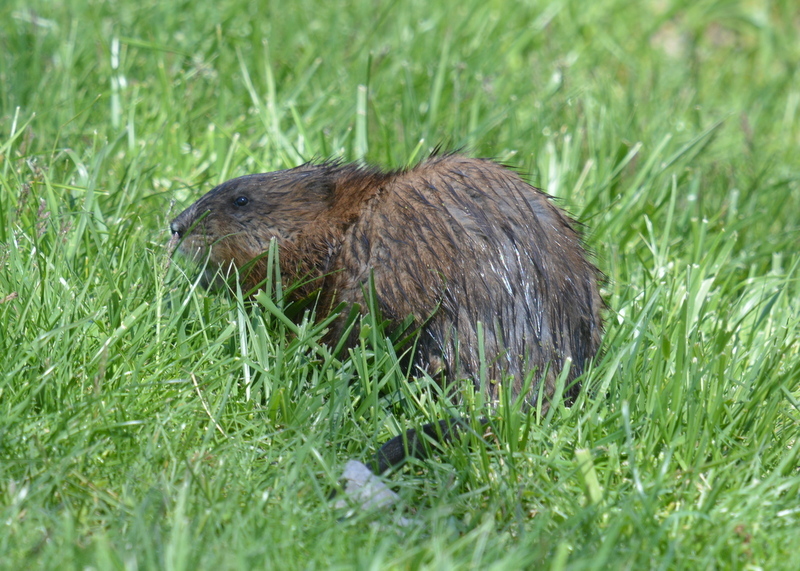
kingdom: Animalia
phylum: Chordata
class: Mammalia
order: Rodentia
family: Cricetidae
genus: Ondatra
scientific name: Ondatra zibethicus
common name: Muskrat
